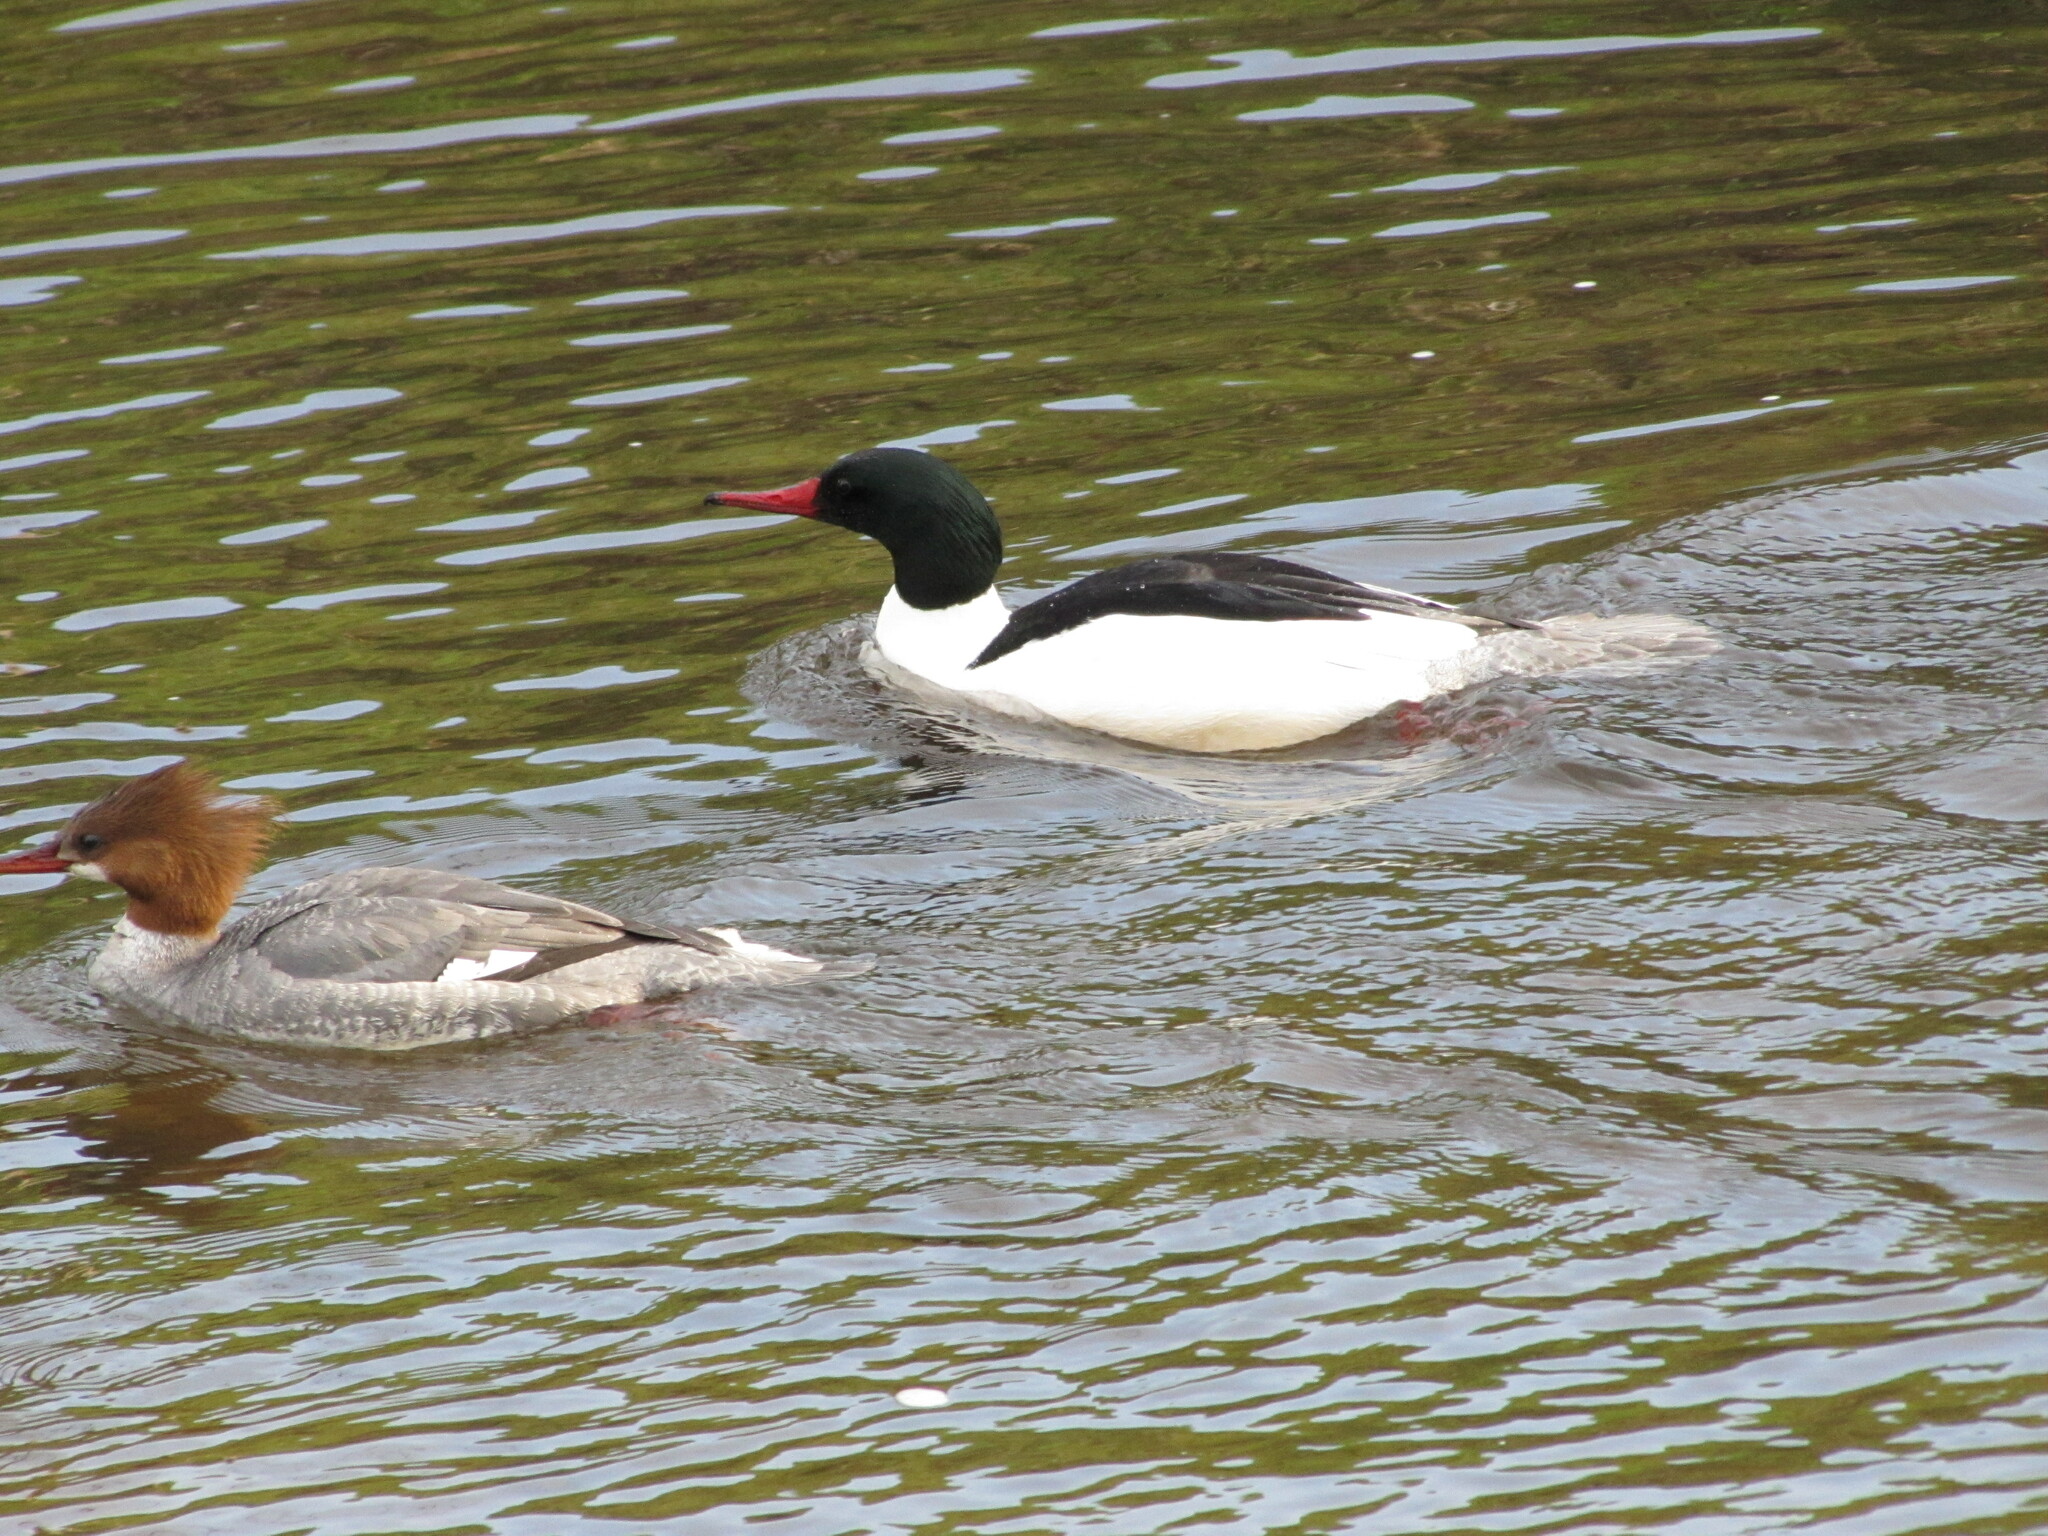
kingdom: Animalia
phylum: Chordata
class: Aves
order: Anseriformes
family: Anatidae
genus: Mergus
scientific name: Mergus merganser
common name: Common merganser
